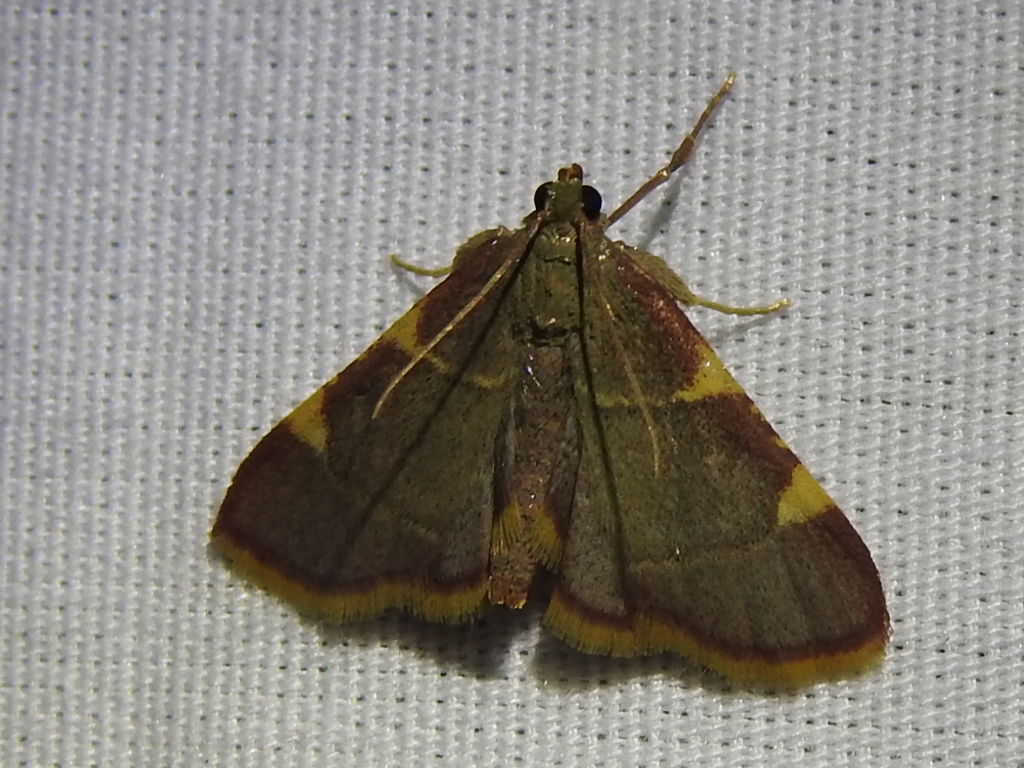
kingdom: Animalia
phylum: Arthropoda
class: Insecta
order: Lepidoptera
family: Pyralidae
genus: Hypsopygia
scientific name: Hypsopygia olinalis
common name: Yellow-fringed dolichomia moth
